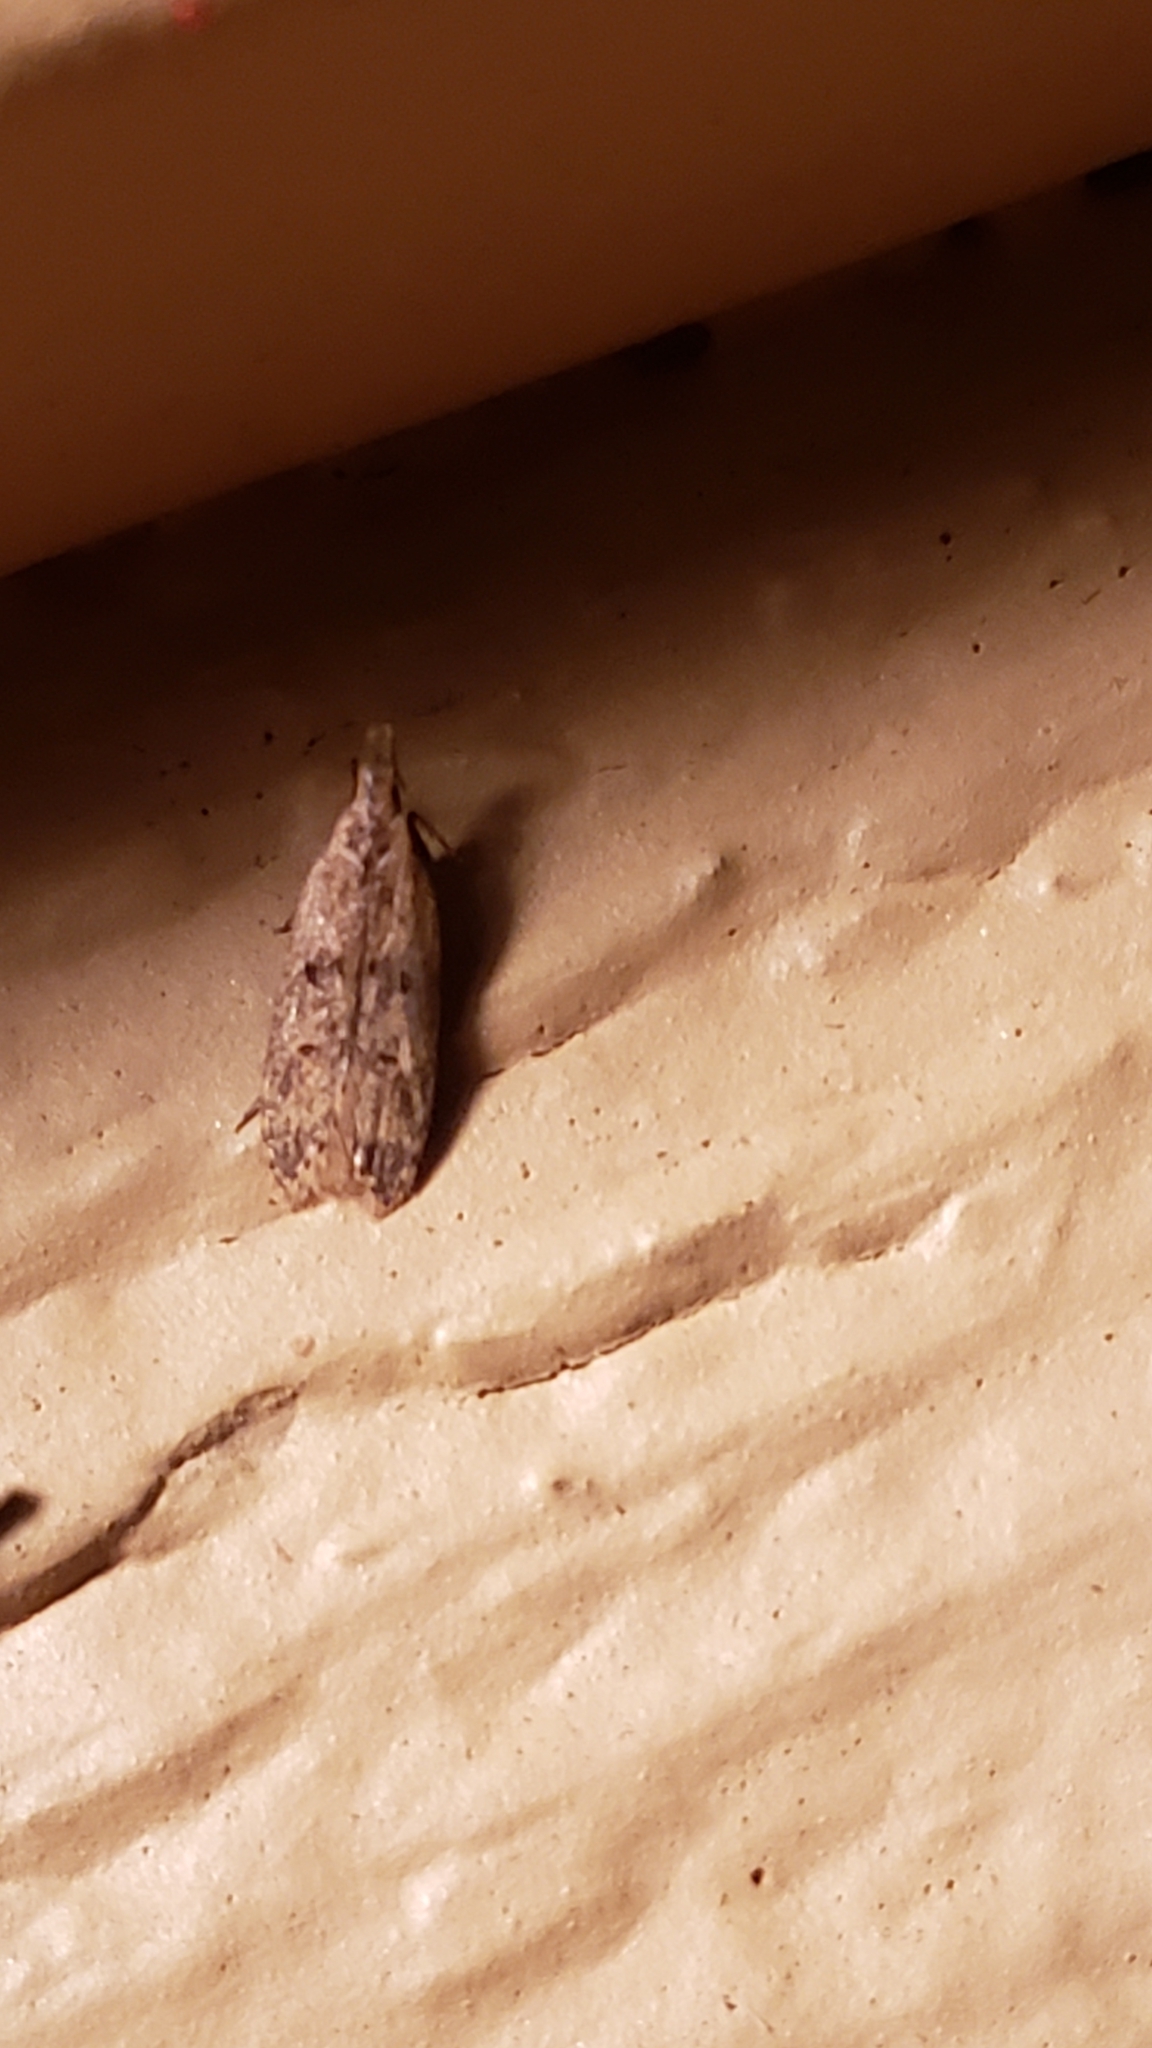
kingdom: Animalia
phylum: Arthropoda
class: Insecta
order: Lepidoptera
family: Gelechiidae
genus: Dichomeris
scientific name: Dichomeris punctipennella
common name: Many-spotted dichomeris moth
